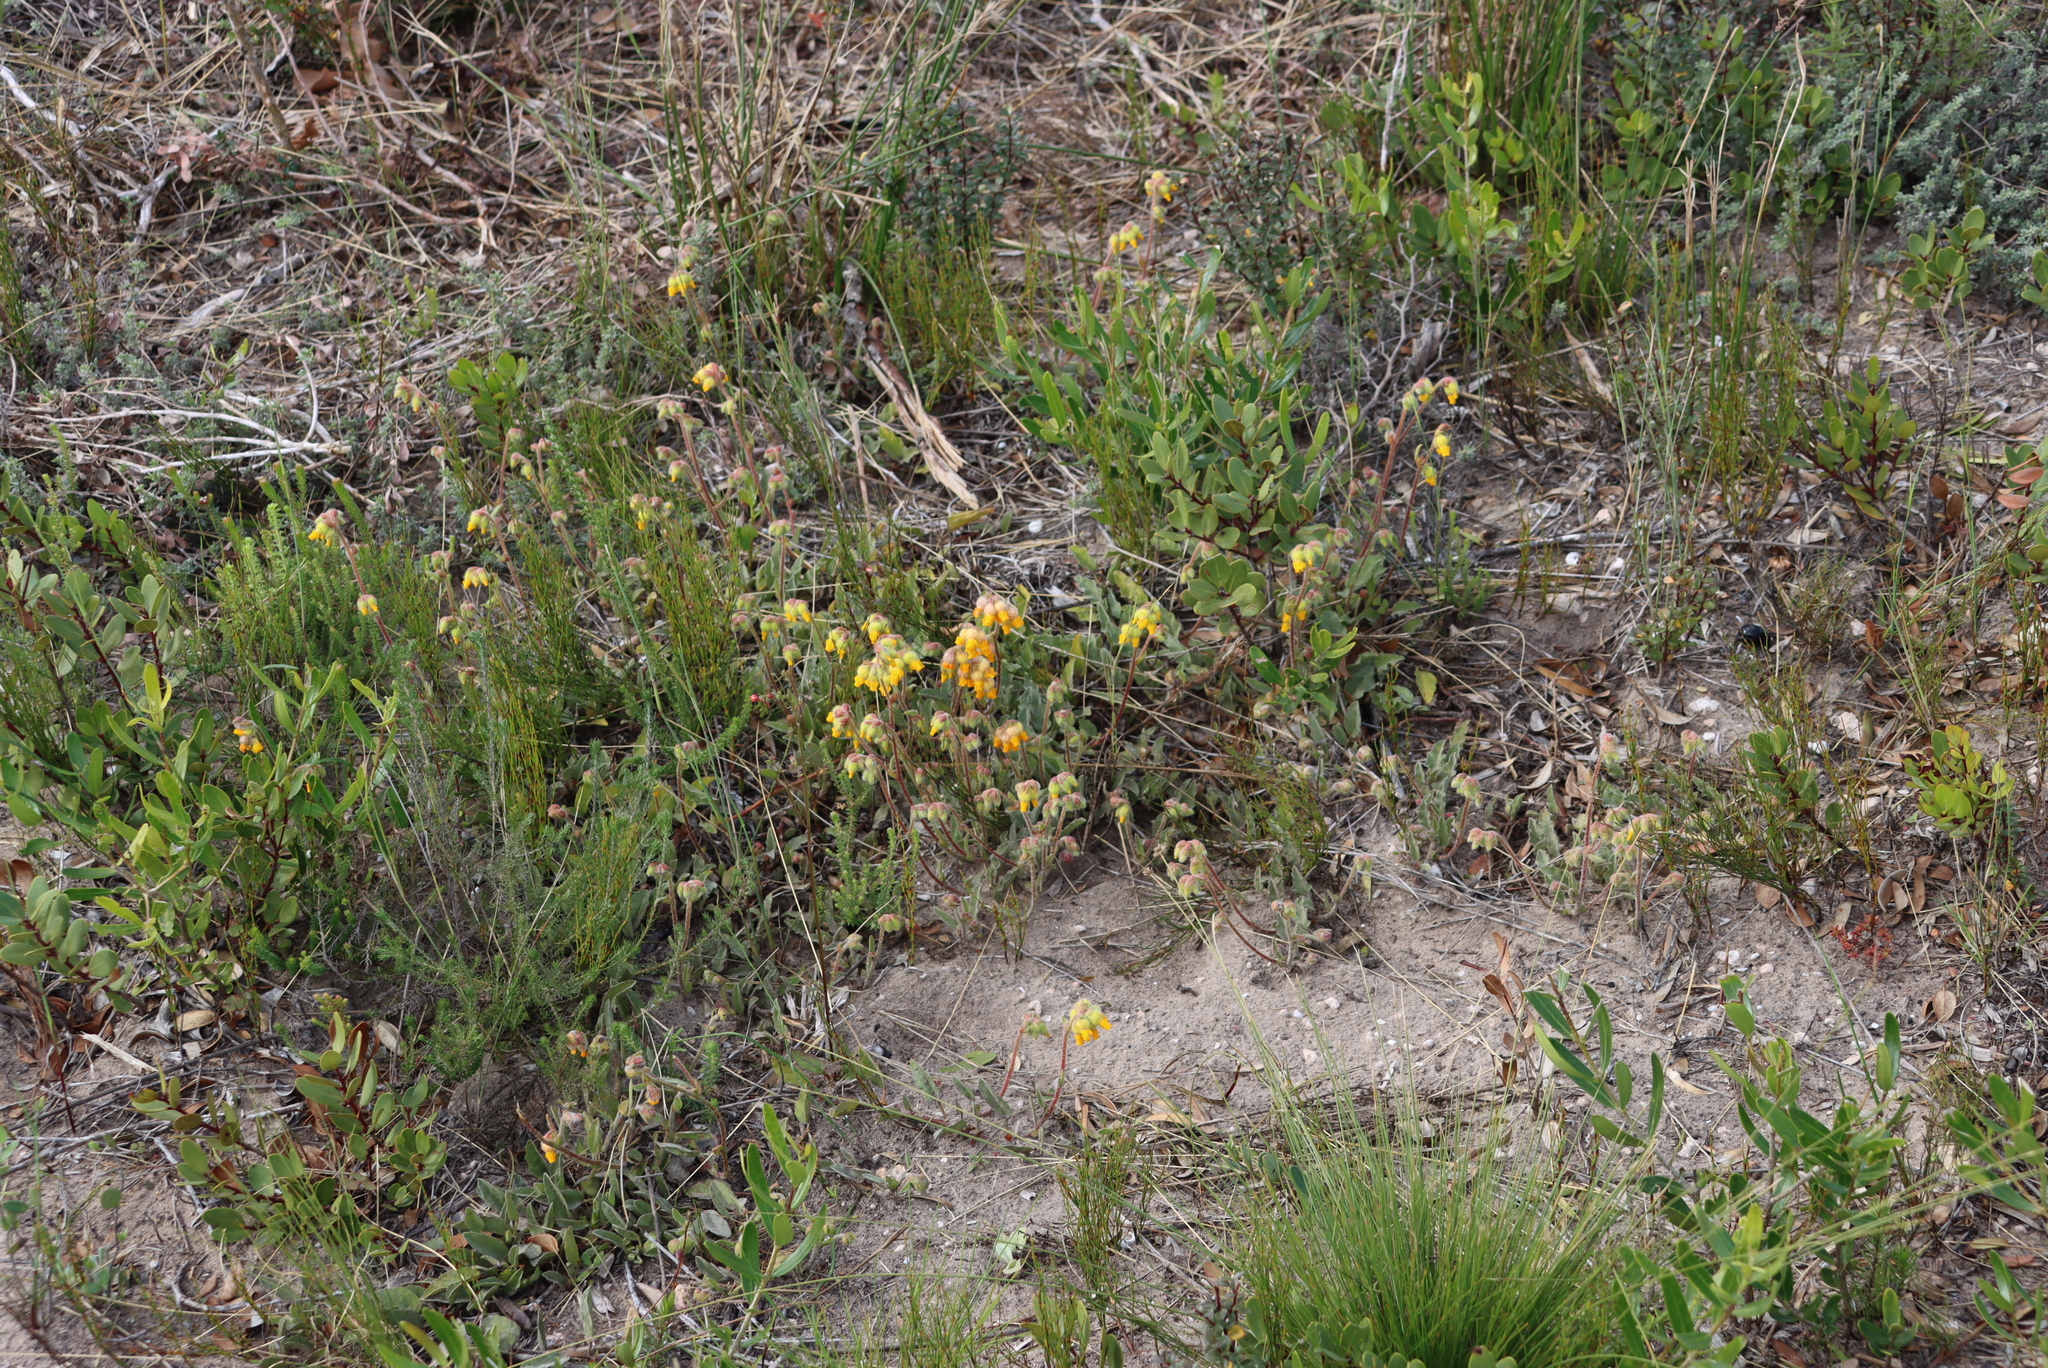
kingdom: Plantae
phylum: Tracheophyta
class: Magnoliopsida
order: Malvales
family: Malvaceae
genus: Hermannia
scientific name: Hermannia decumbens
